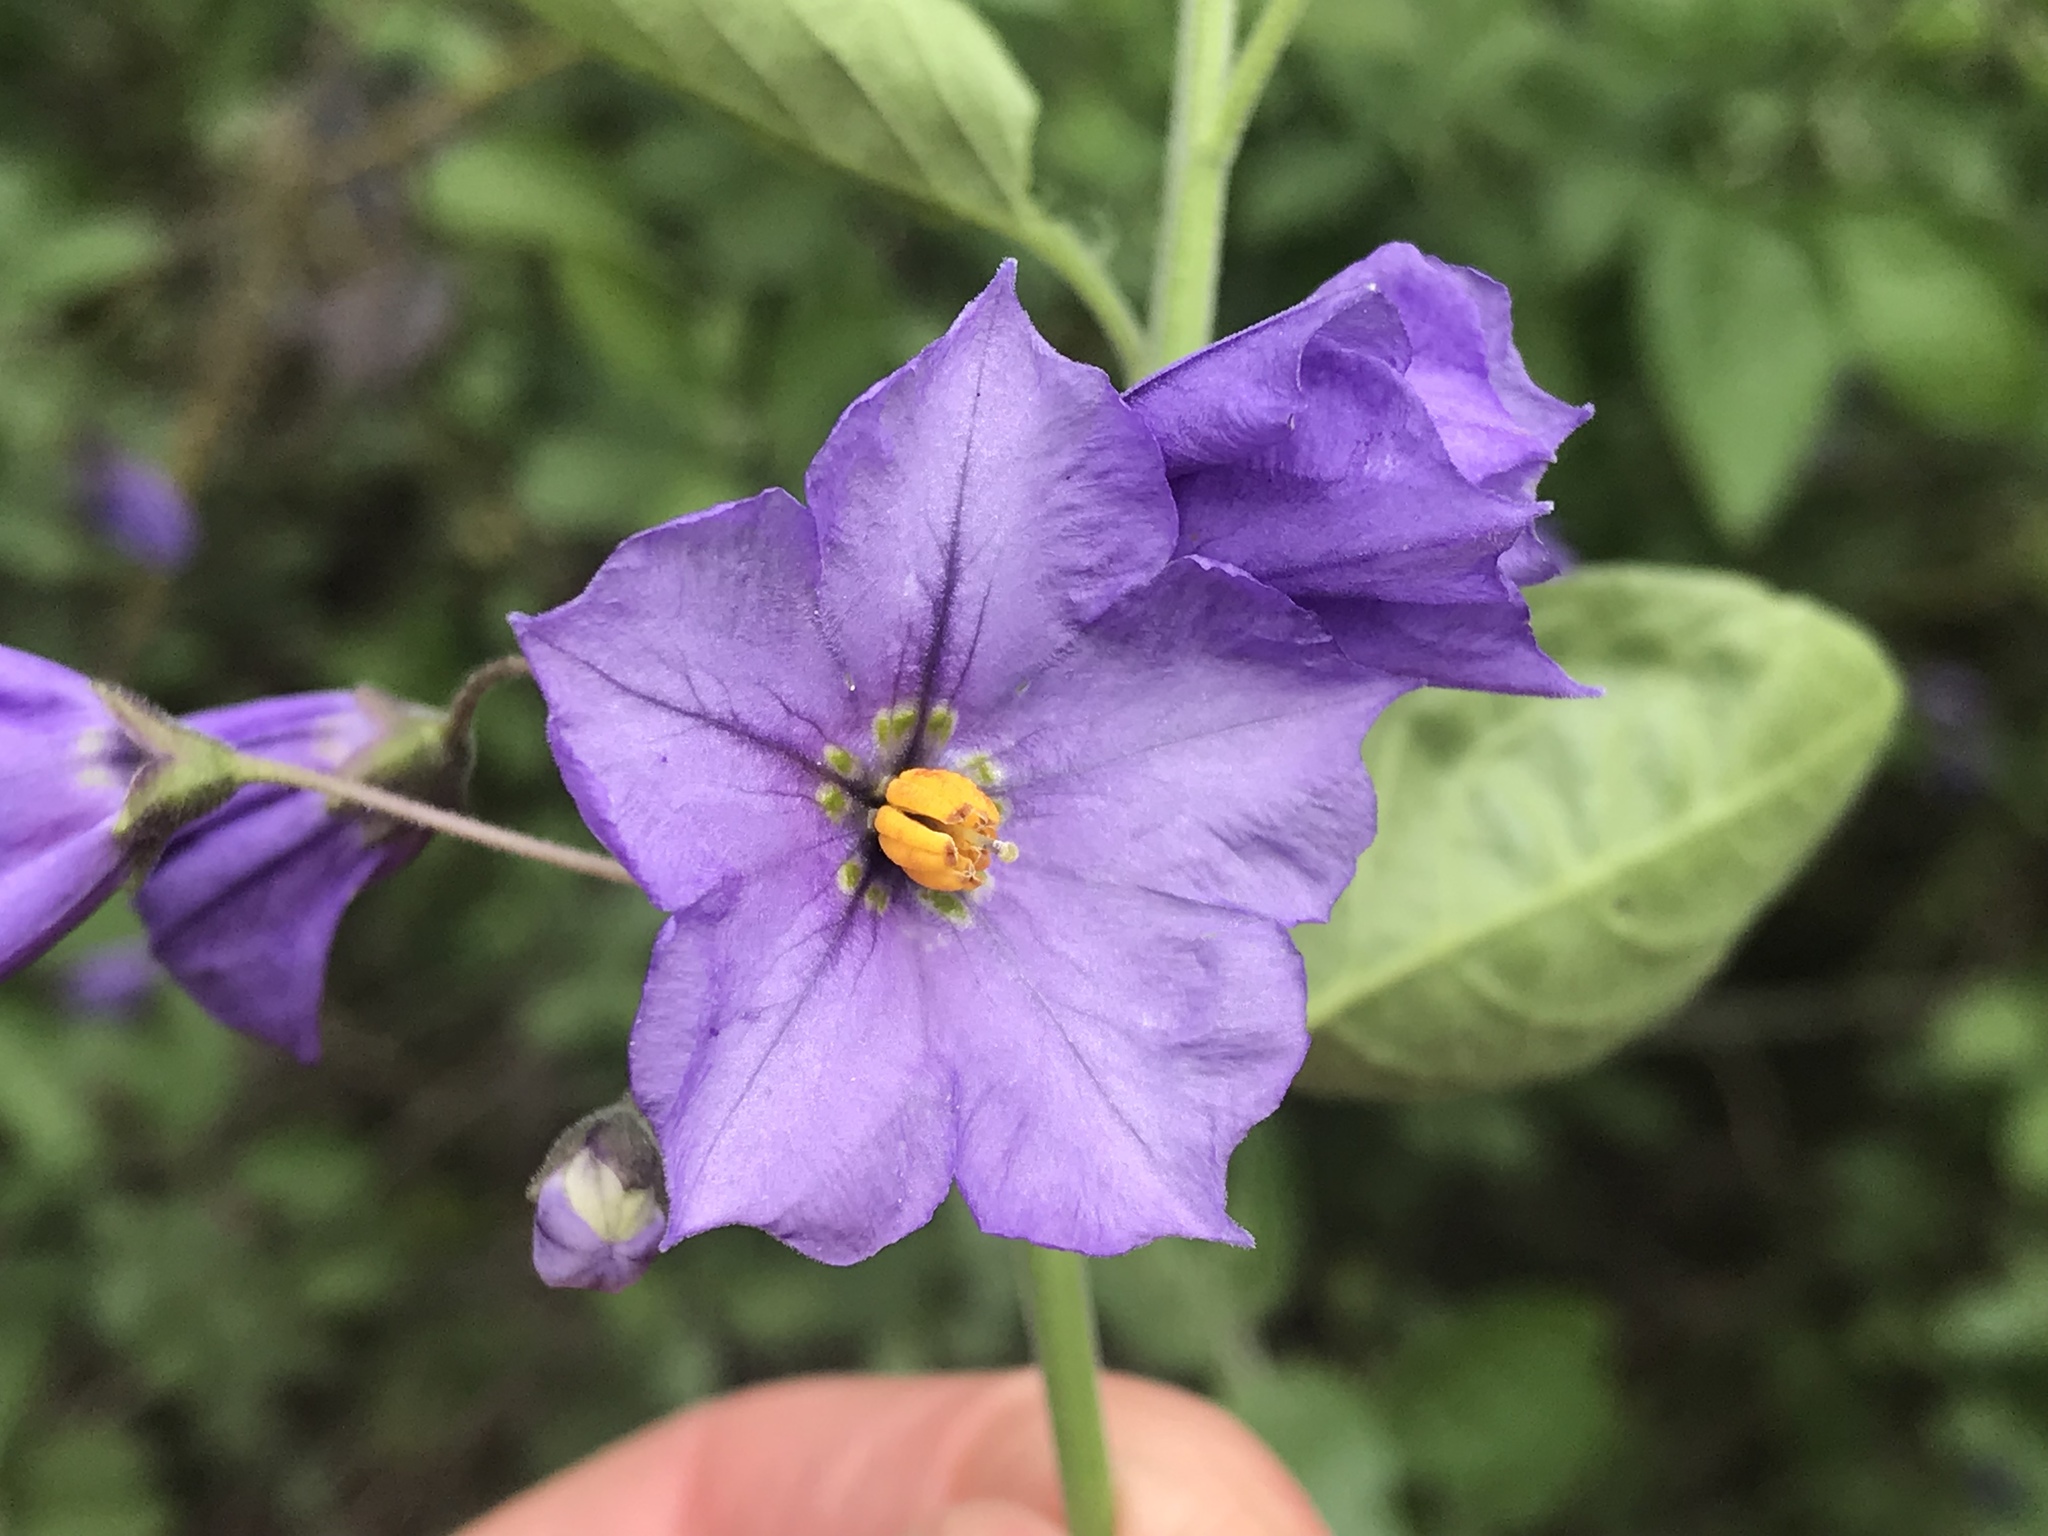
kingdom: Plantae
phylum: Tracheophyta
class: Magnoliopsida
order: Solanales
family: Solanaceae
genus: Solanum
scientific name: Solanum umbelliferum
